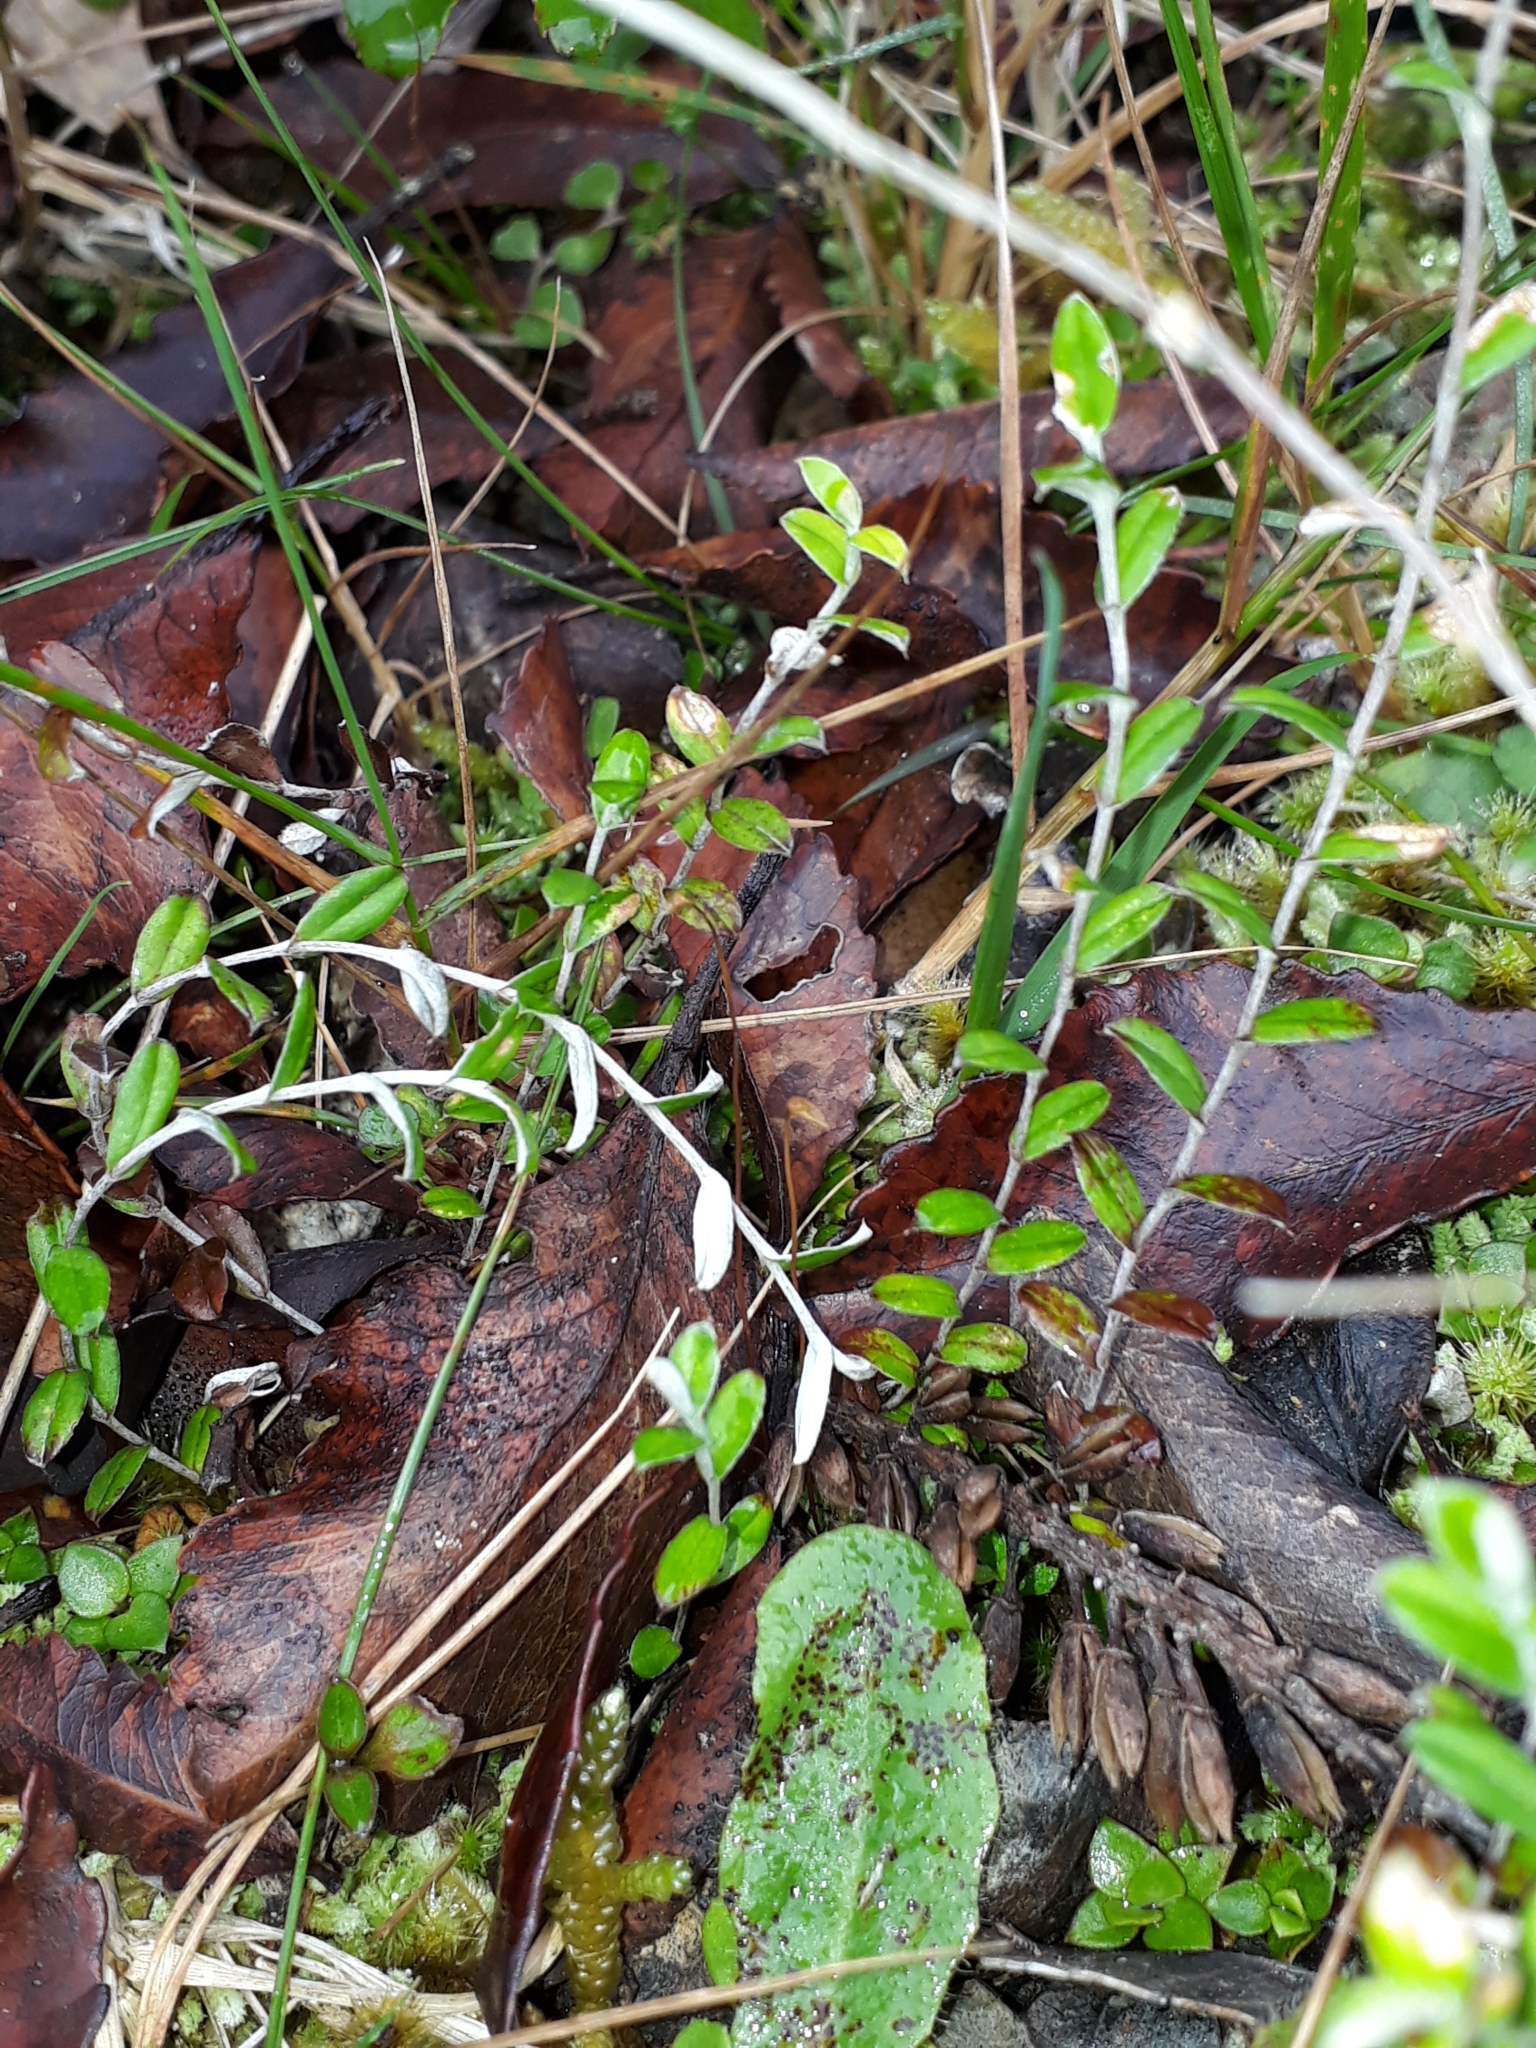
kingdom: Plantae
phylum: Tracheophyta
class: Magnoliopsida
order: Asterales
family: Asteraceae
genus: Helichrysum
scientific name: Helichrysum filicaule
